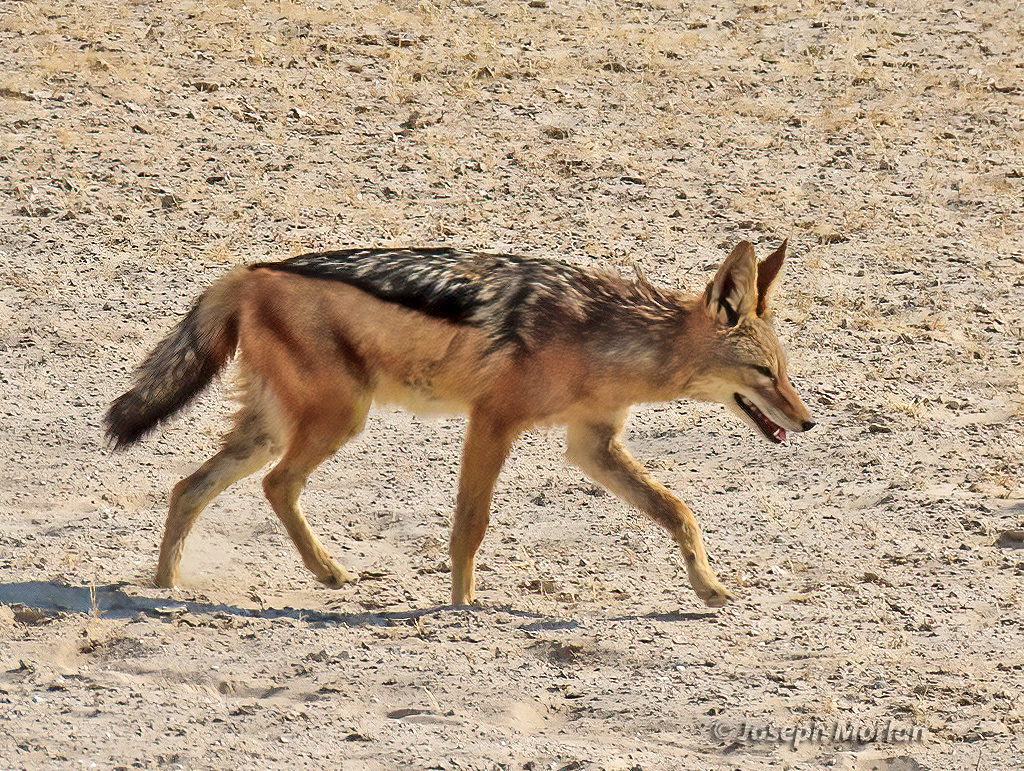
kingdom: Animalia
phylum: Chordata
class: Mammalia
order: Carnivora
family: Canidae
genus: Lupulella
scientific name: Lupulella
